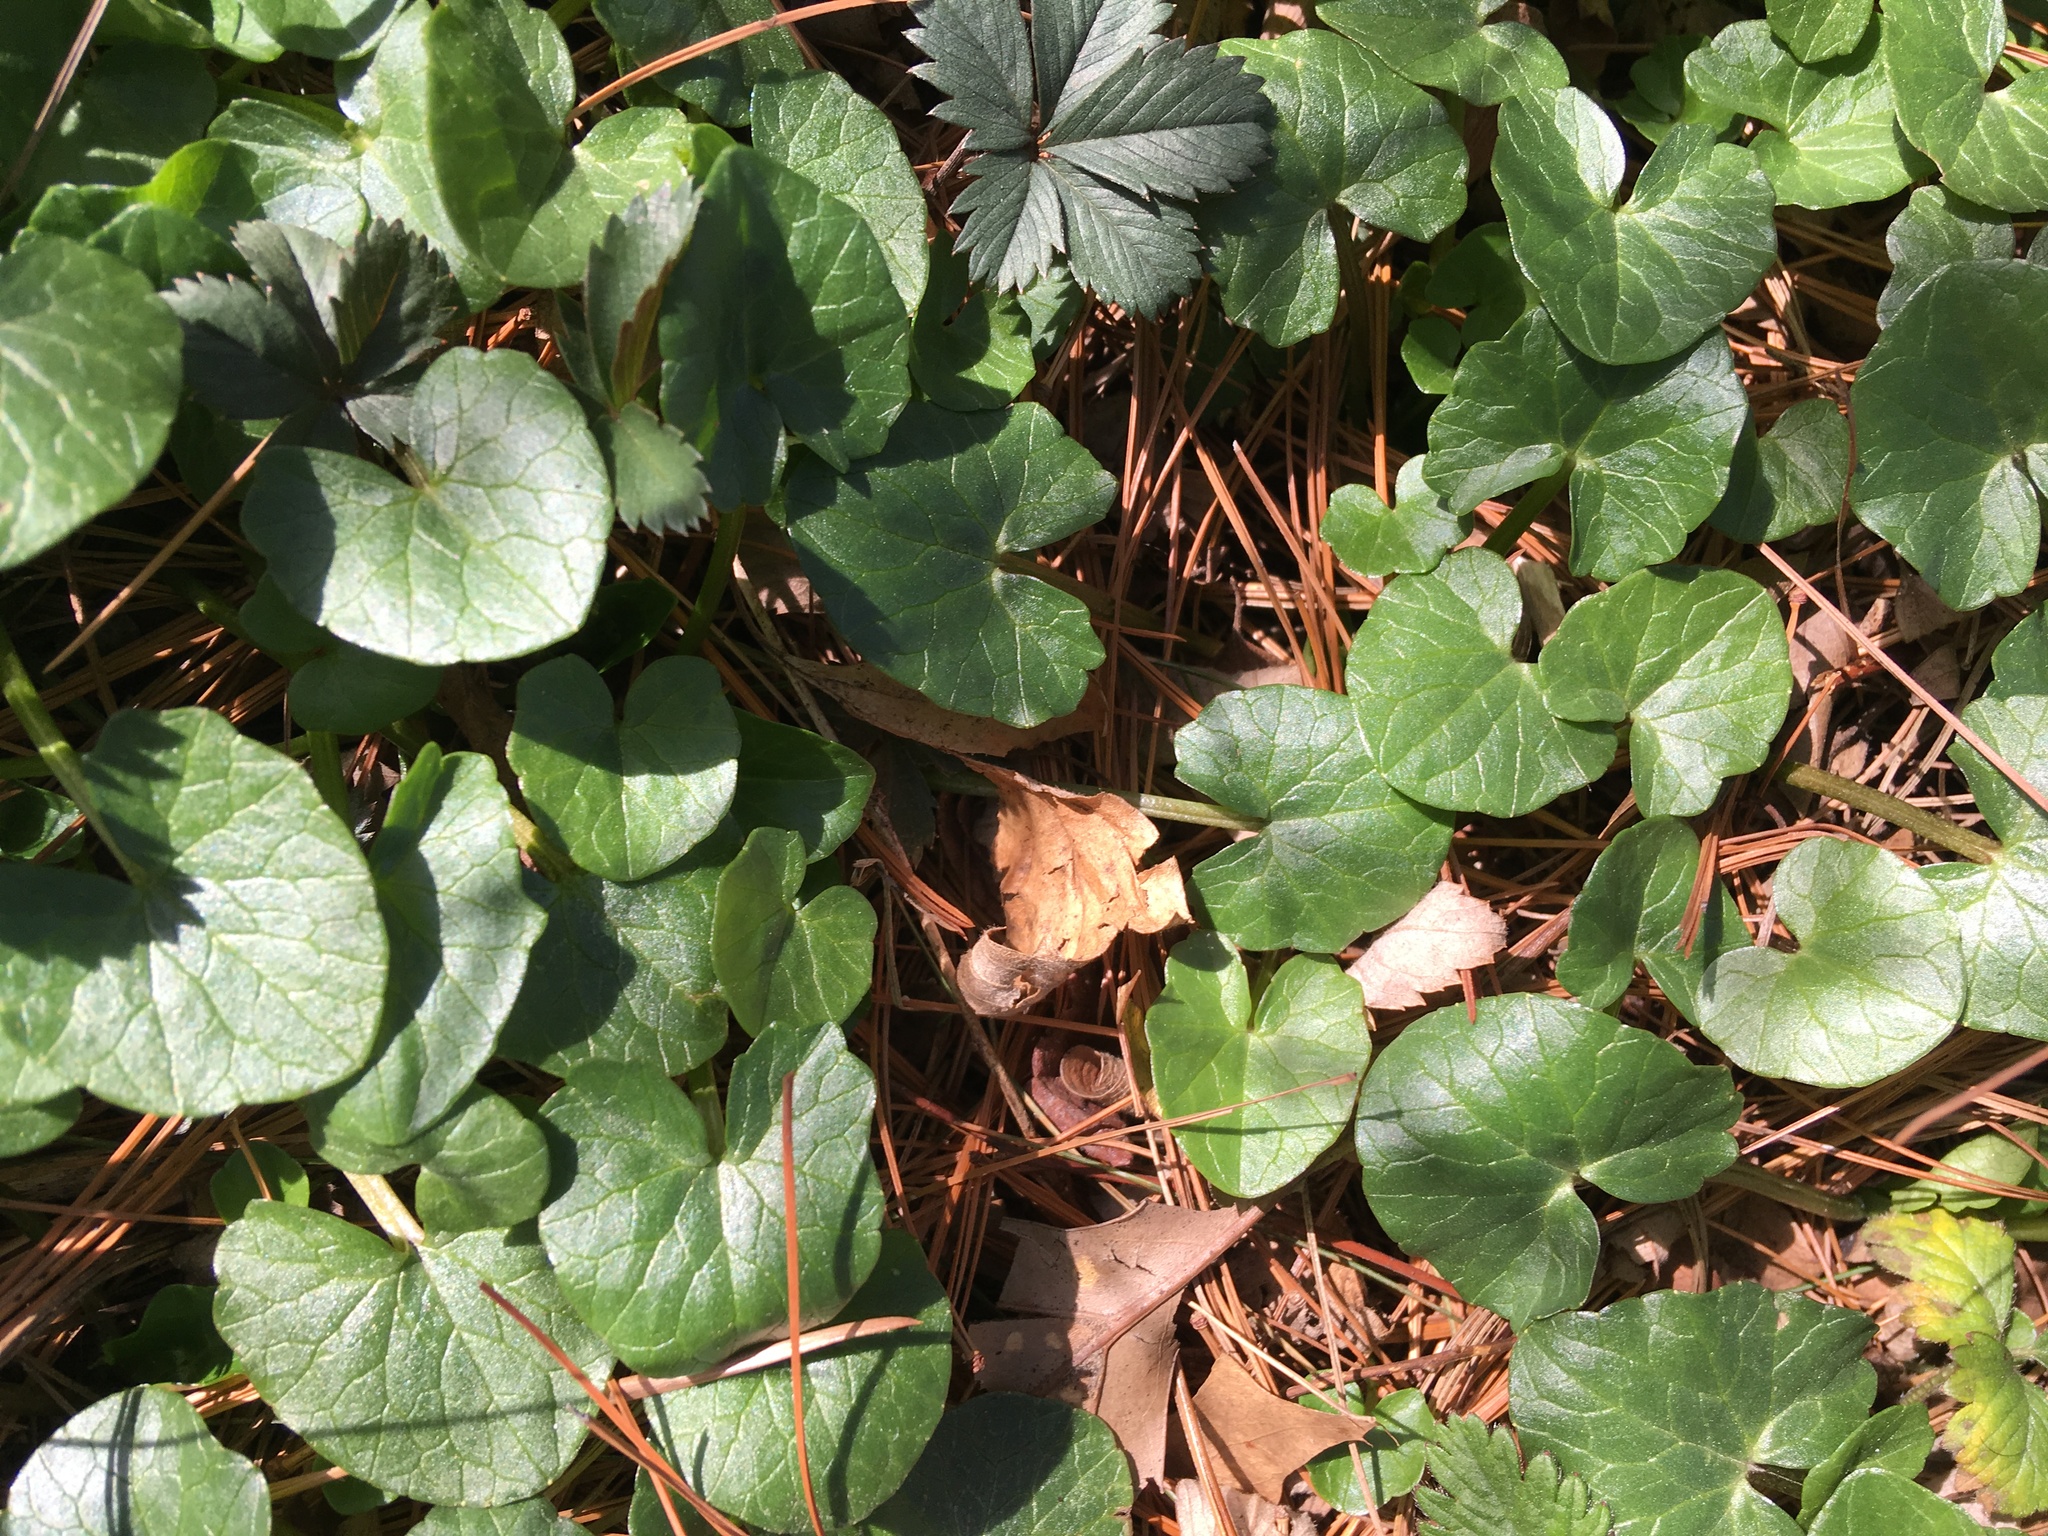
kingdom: Plantae
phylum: Tracheophyta
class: Magnoliopsida
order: Ranunculales
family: Ranunculaceae
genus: Ficaria
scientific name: Ficaria verna
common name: Lesser celandine
